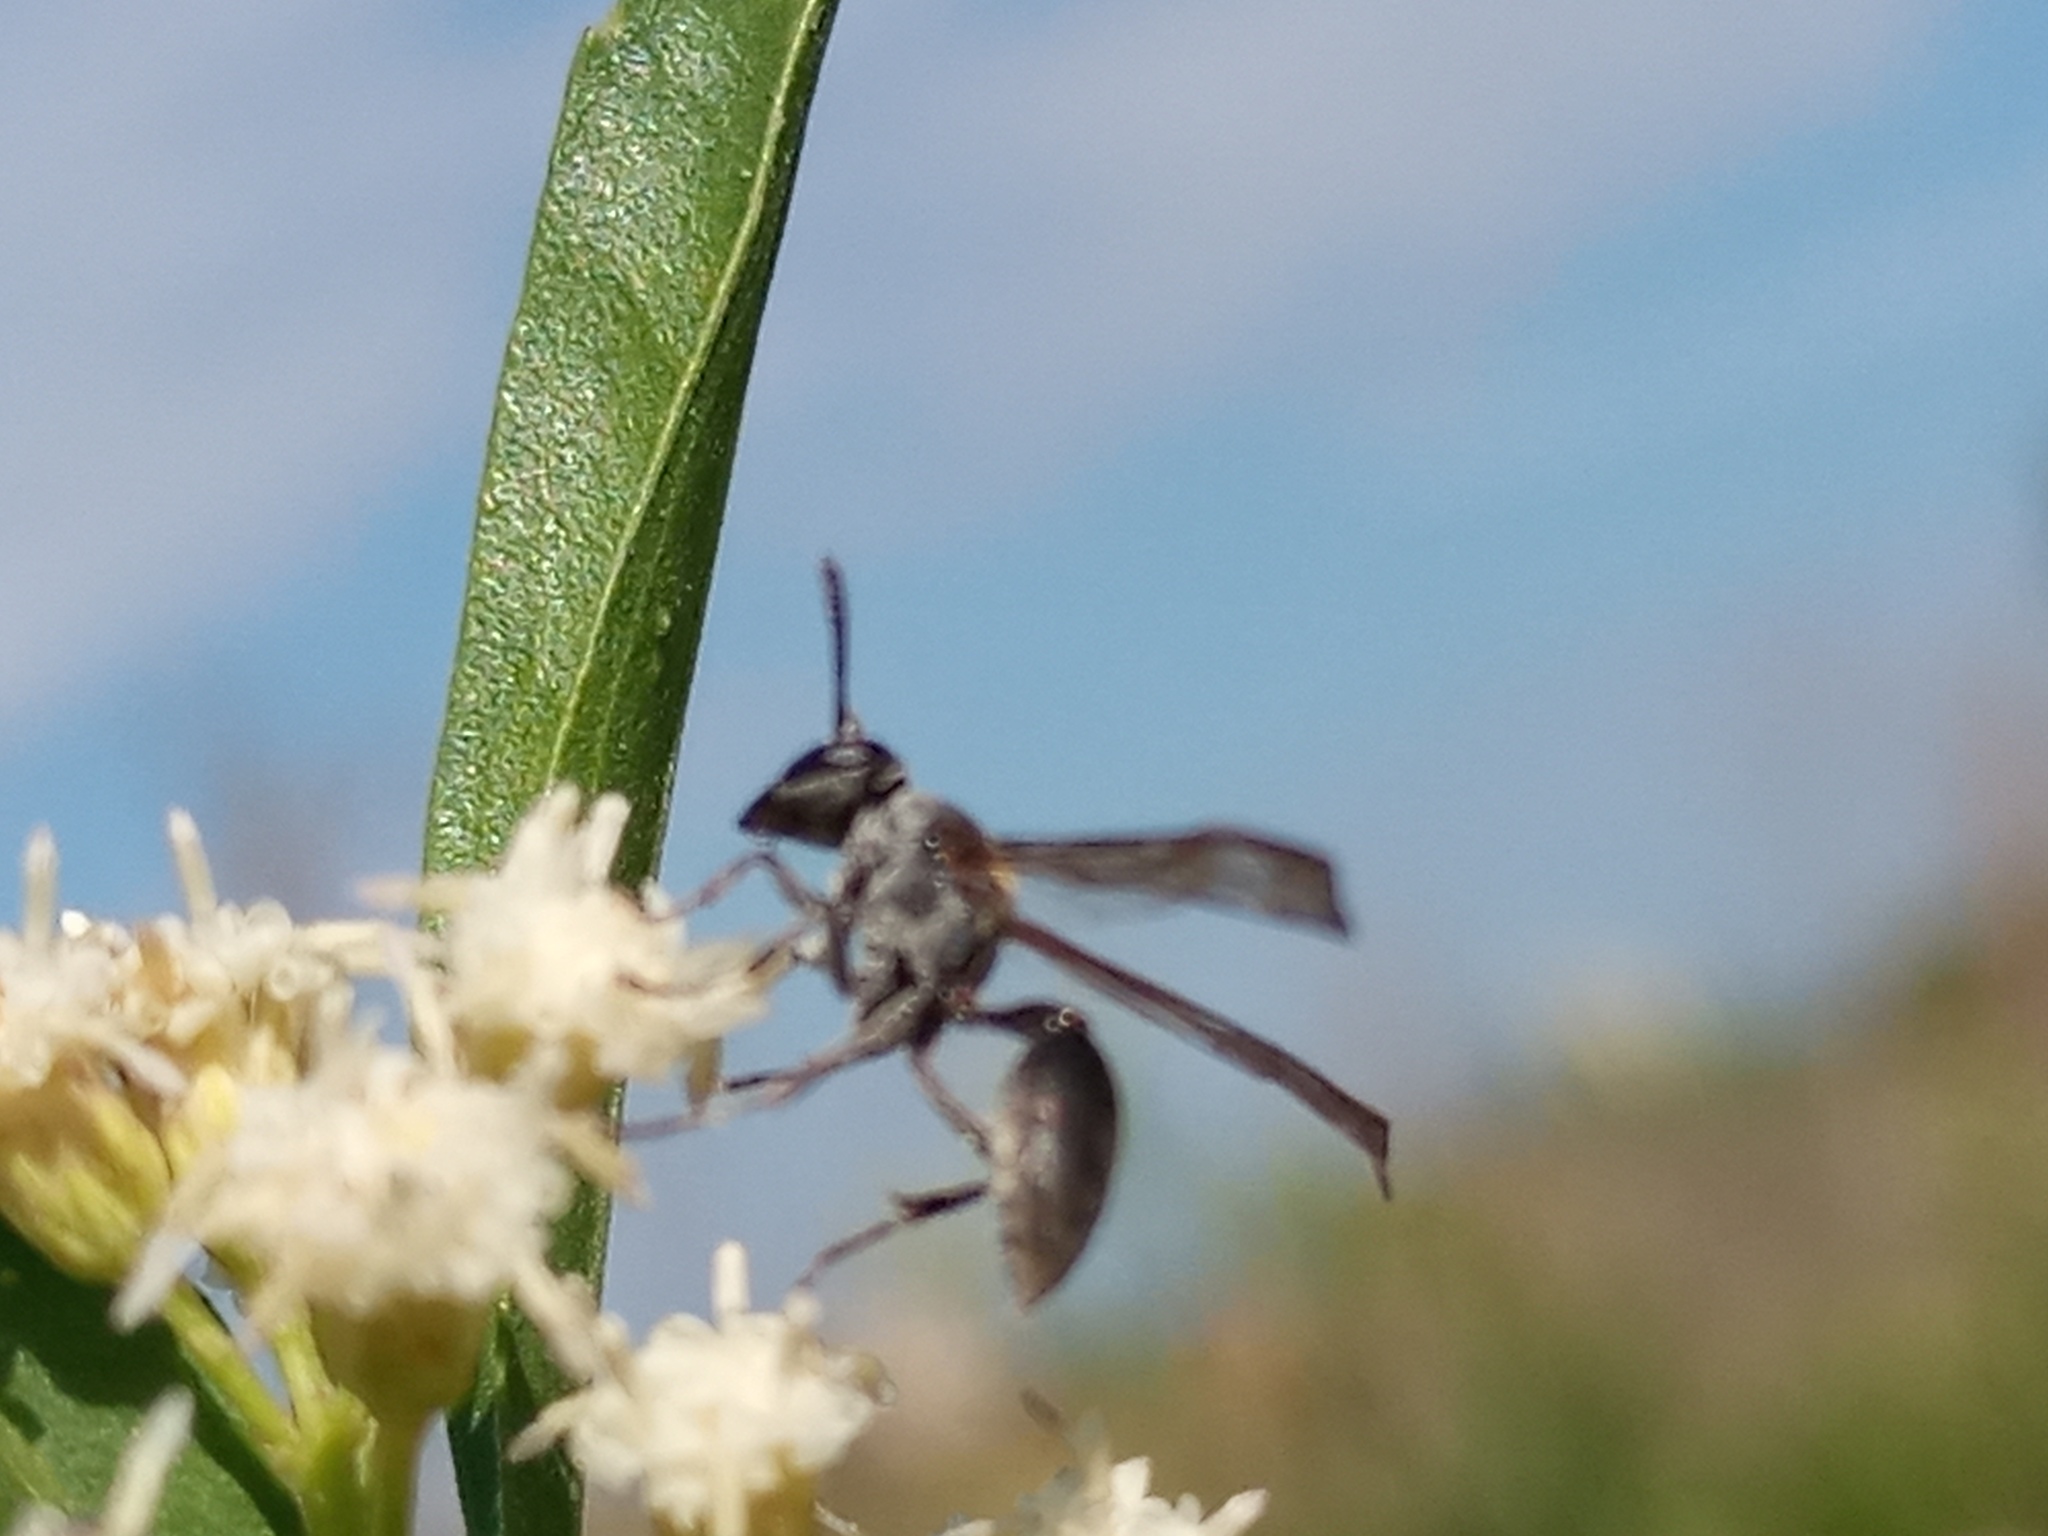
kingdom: Animalia
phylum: Arthropoda
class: Insecta
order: Hymenoptera
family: Eumenidae
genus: Polybia
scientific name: Polybia scutellaris
